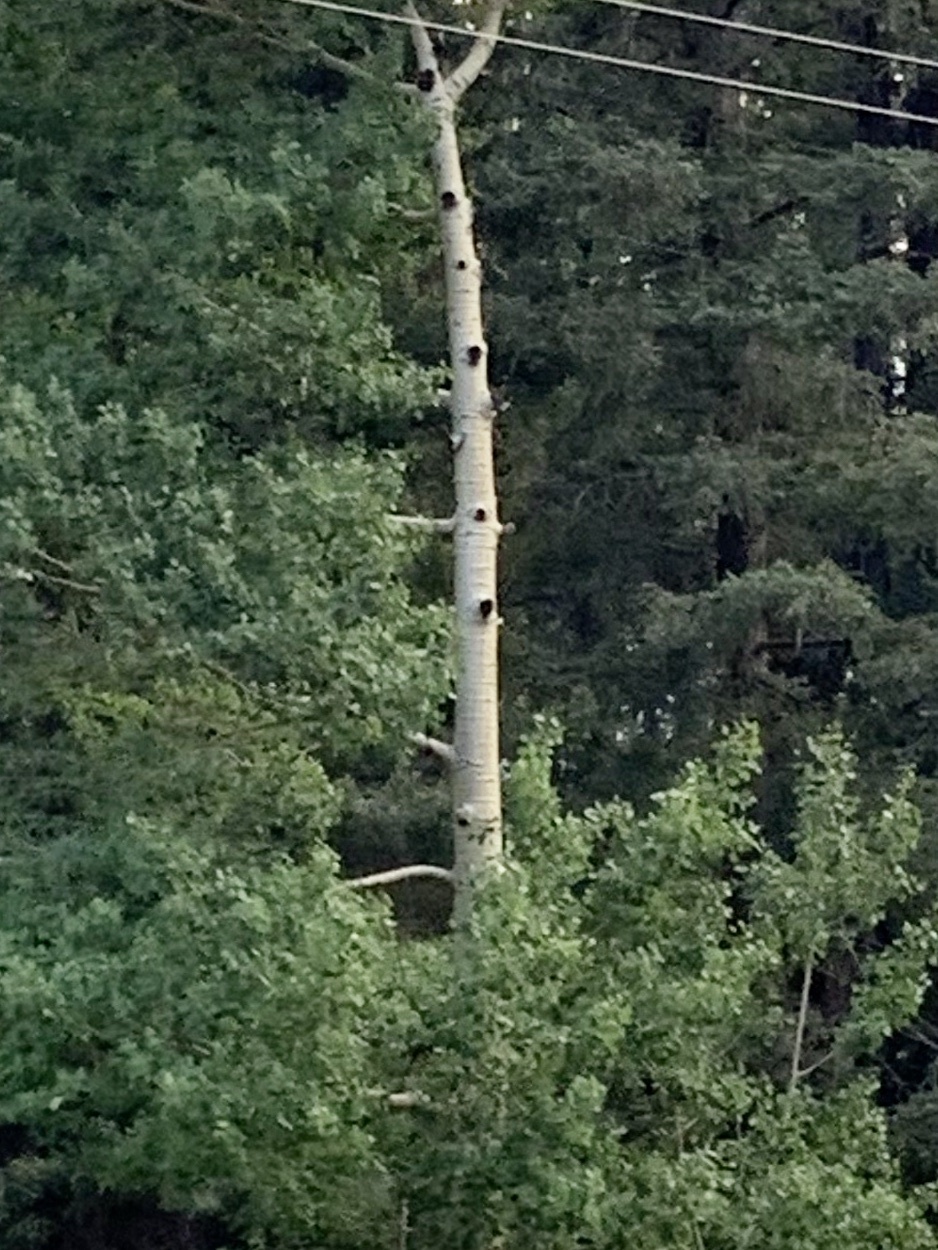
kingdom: Plantae
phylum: Tracheophyta
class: Magnoliopsida
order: Malpighiales
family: Salicaceae
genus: Populus
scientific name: Populus tremuloides
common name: Quaking aspen
